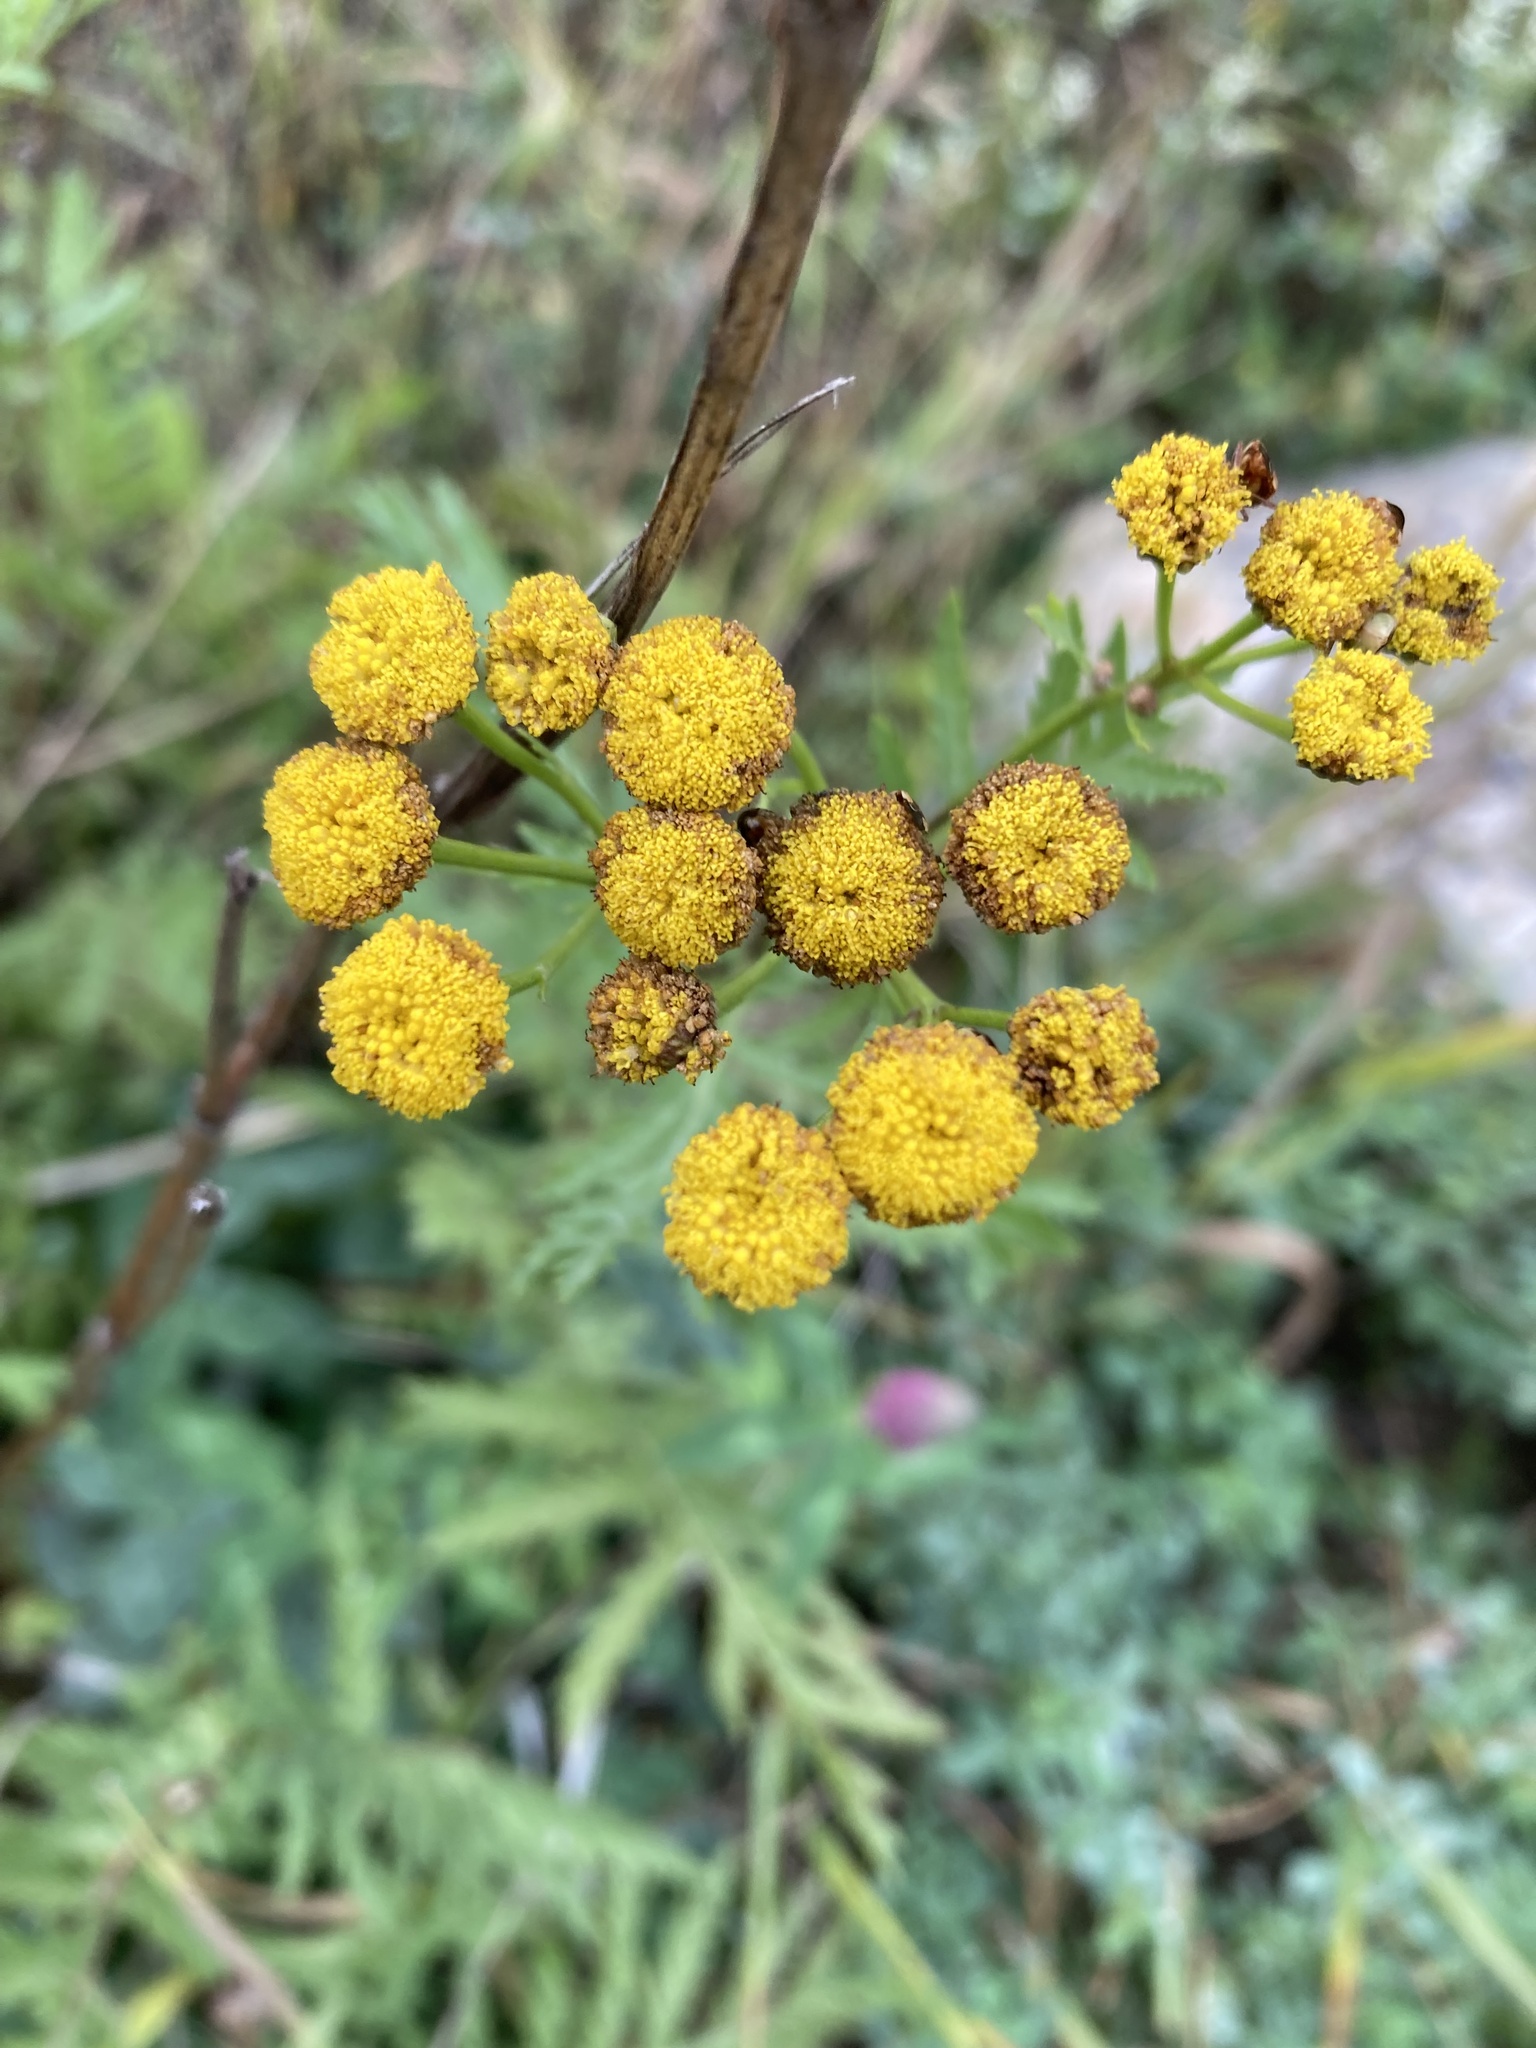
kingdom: Plantae
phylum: Tracheophyta
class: Magnoliopsida
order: Asterales
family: Asteraceae
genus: Tanacetum
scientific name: Tanacetum vulgare
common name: Common tansy
